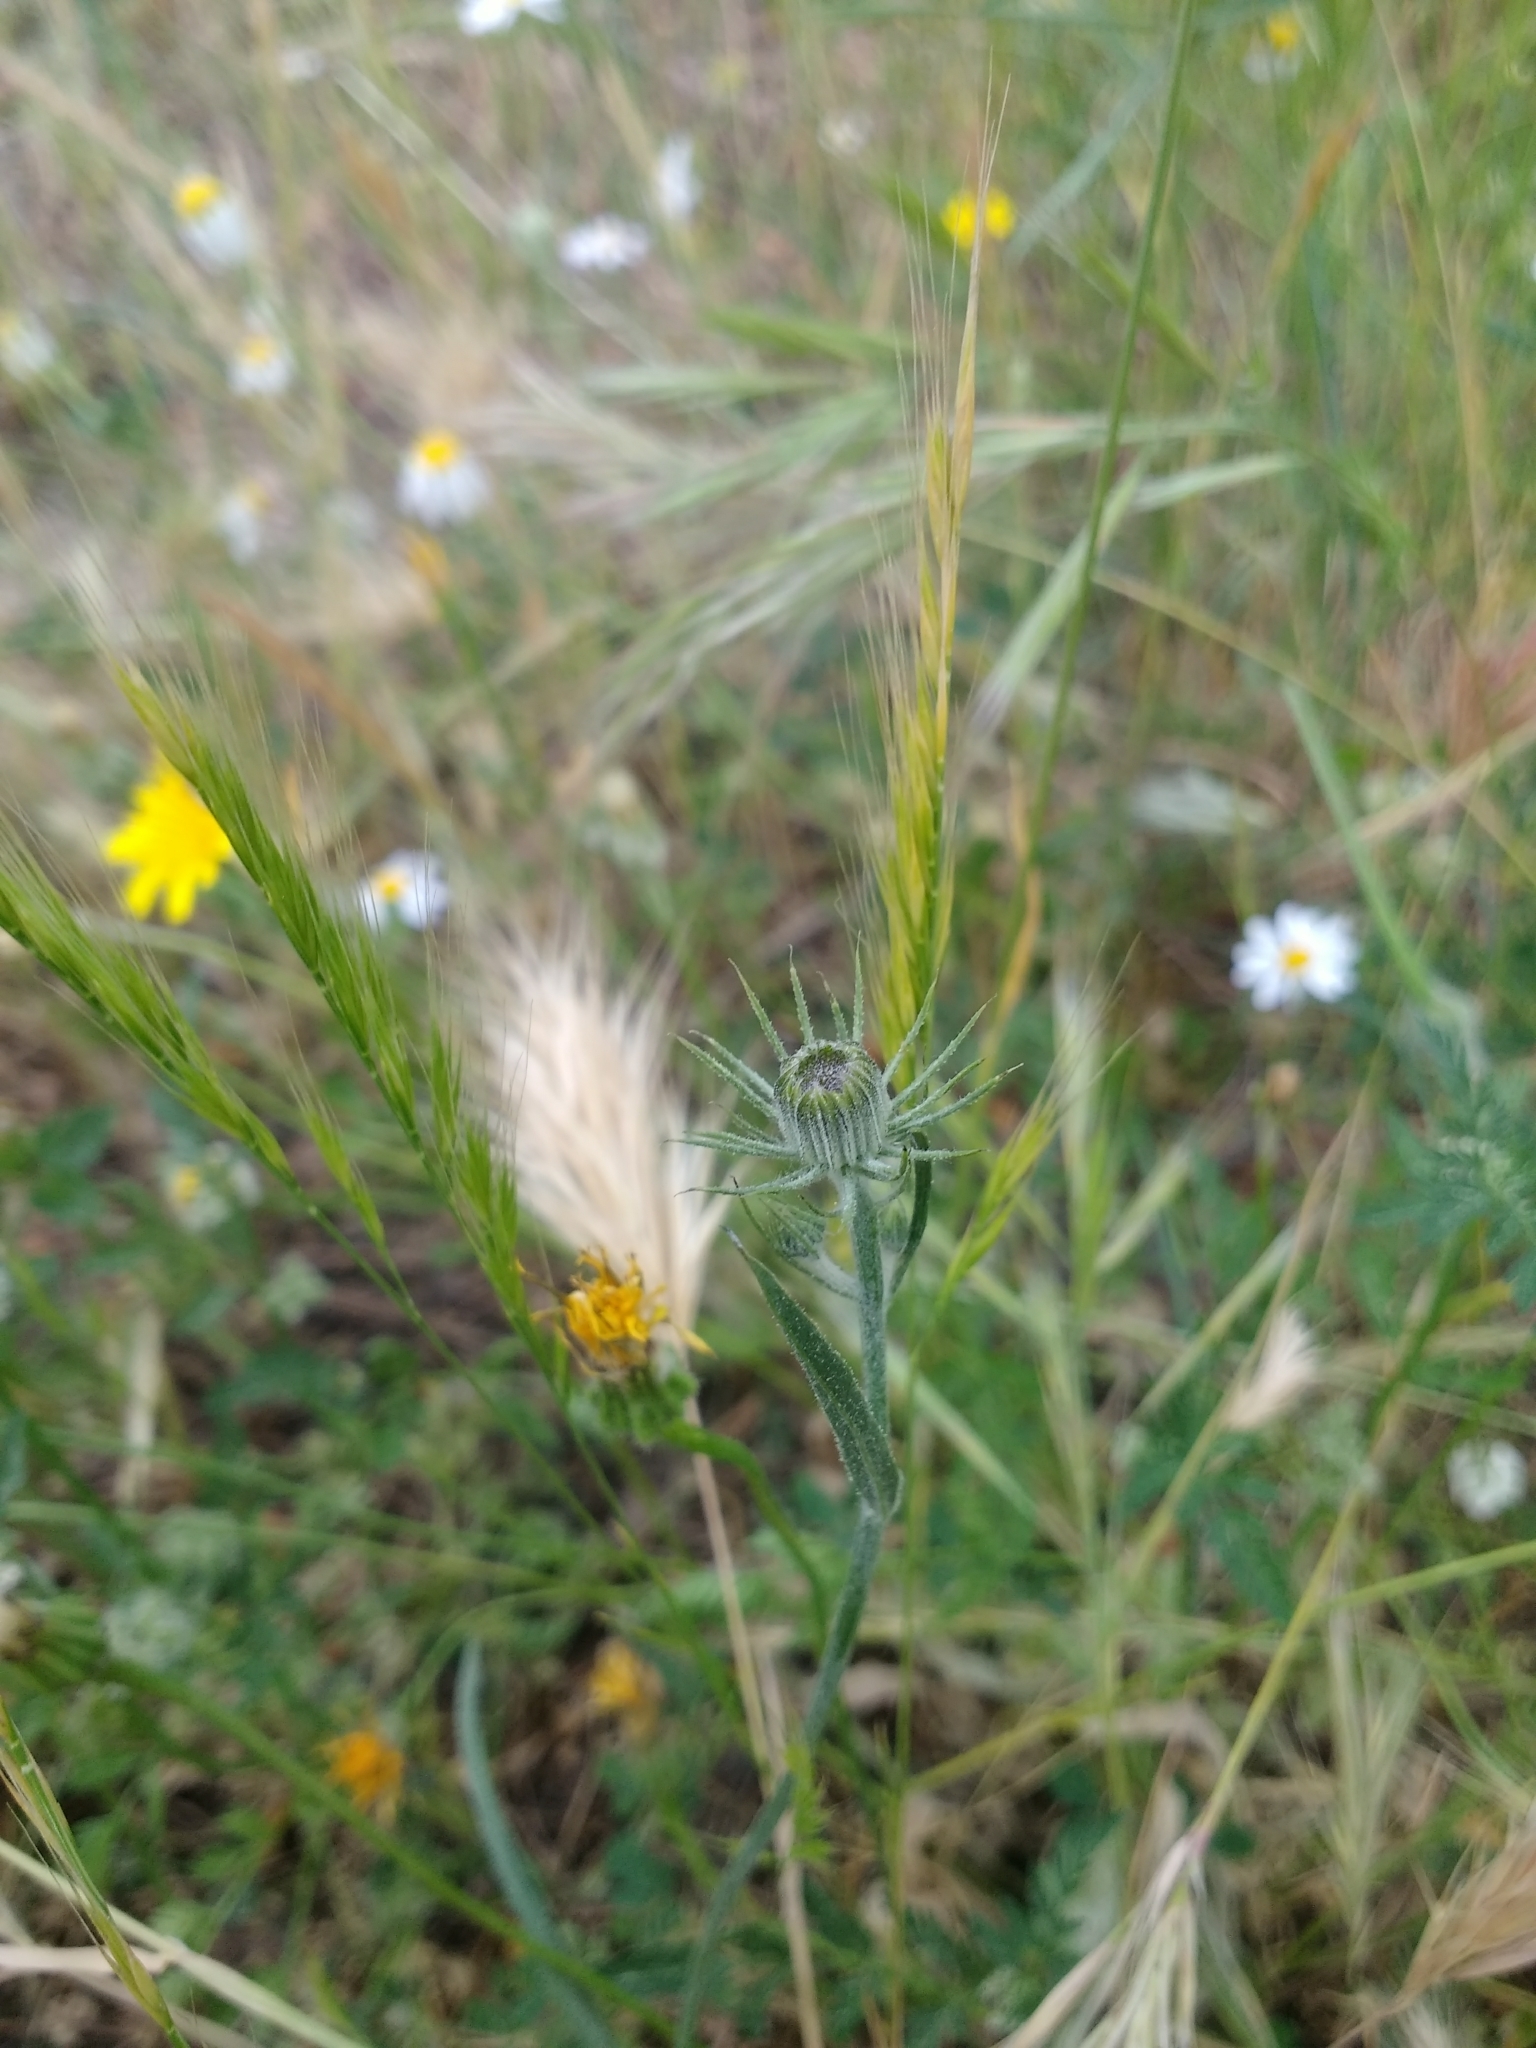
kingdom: Plantae
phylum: Tracheophyta
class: Magnoliopsida
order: Asterales
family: Asteraceae
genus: Tolpis
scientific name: Tolpis barbata
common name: Yellow hawkweed
